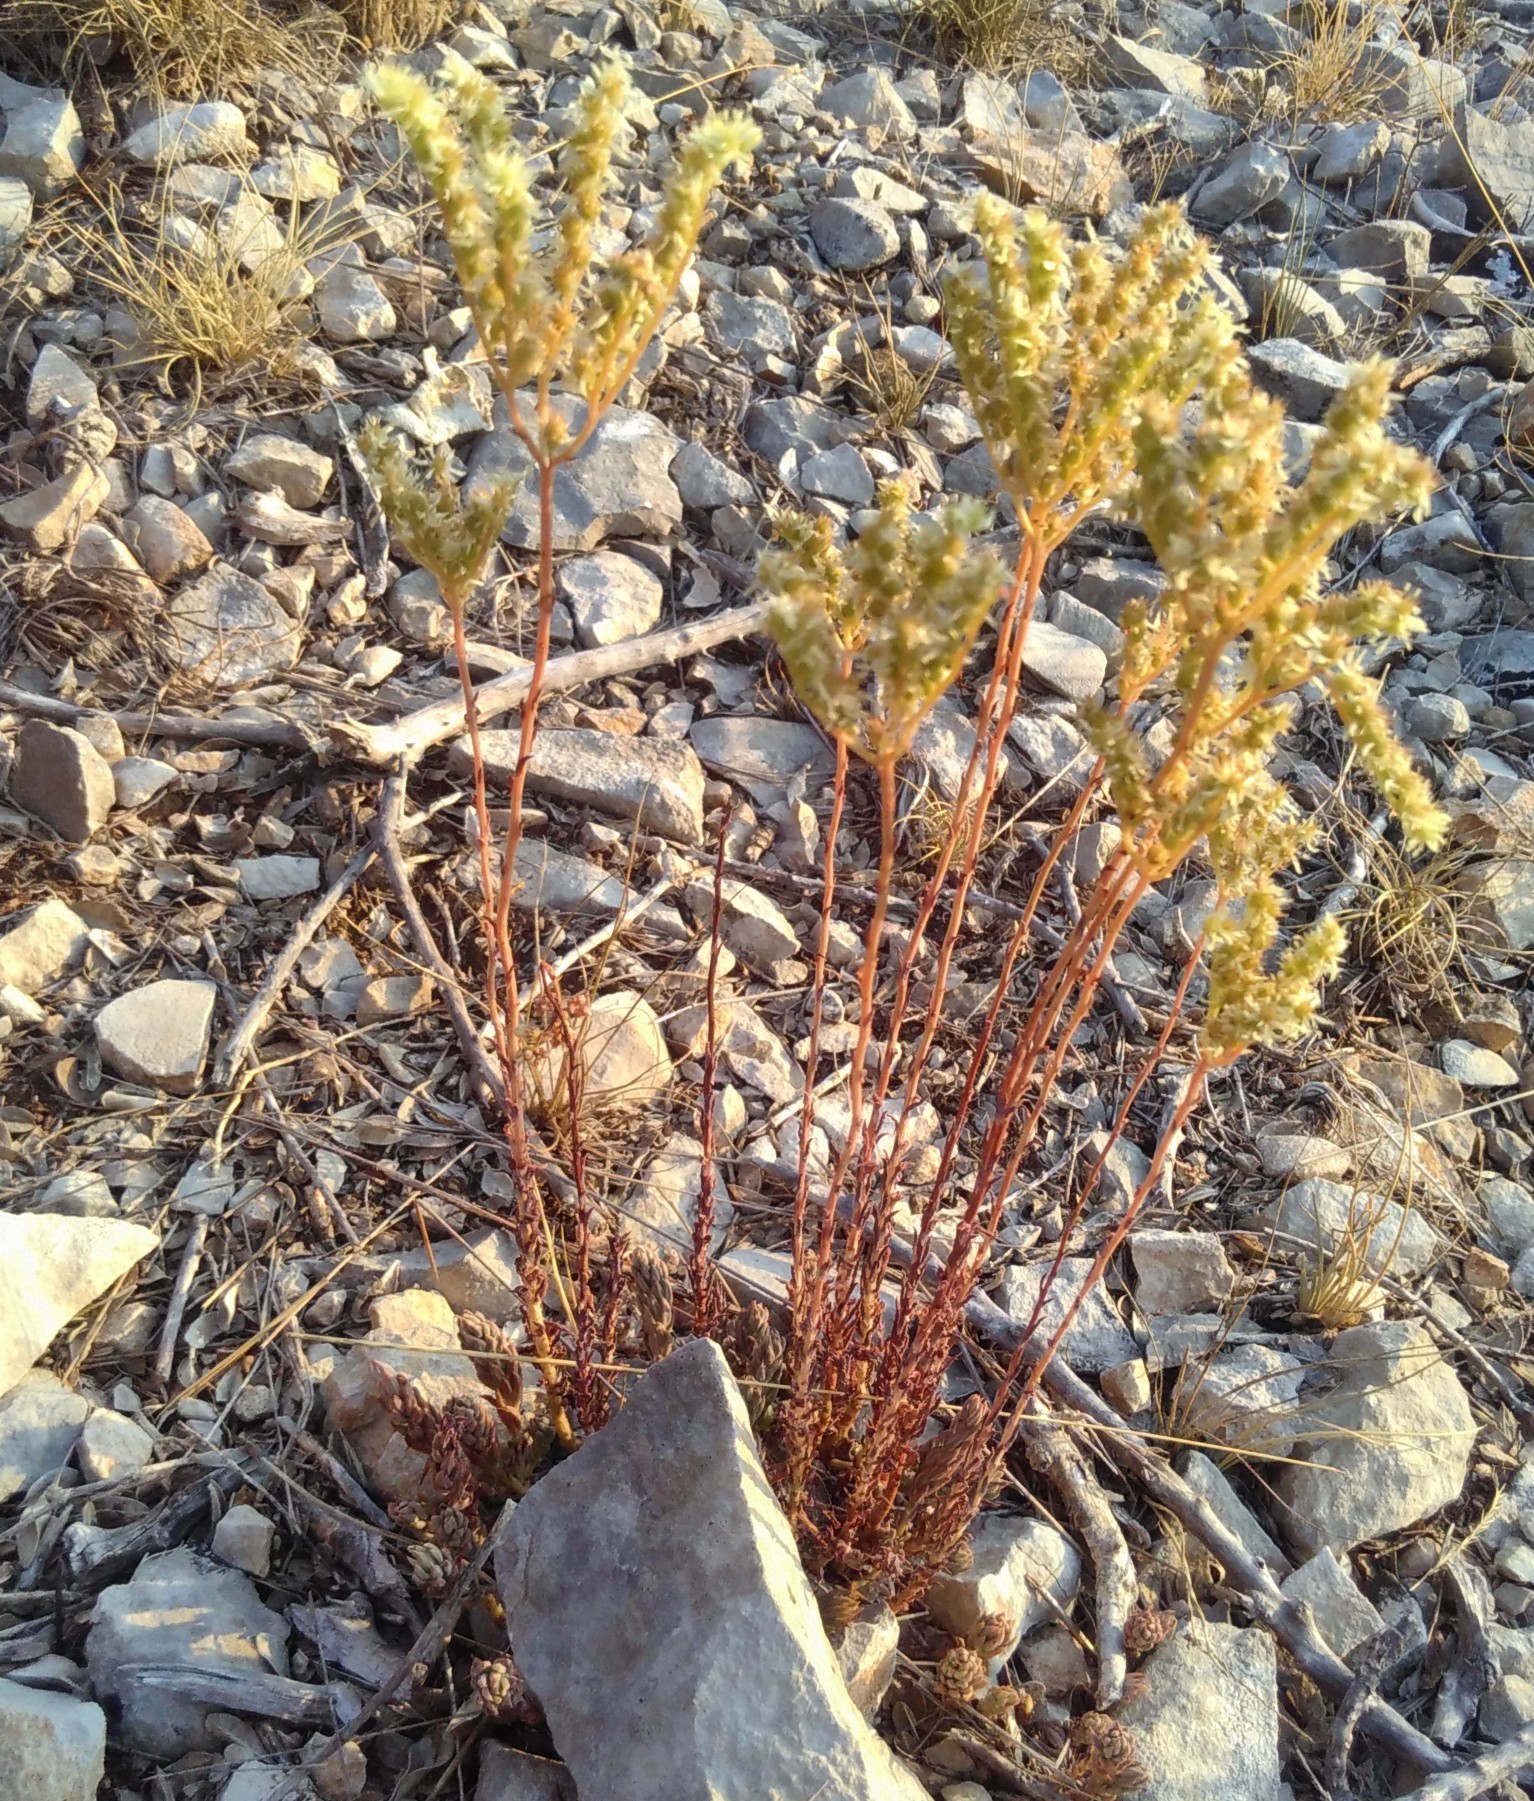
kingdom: Plantae
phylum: Tracheophyta
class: Magnoliopsida
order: Saxifragales
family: Crassulaceae
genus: Petrosedum
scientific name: Petrosedum sediforme
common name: Pale stonecrop
